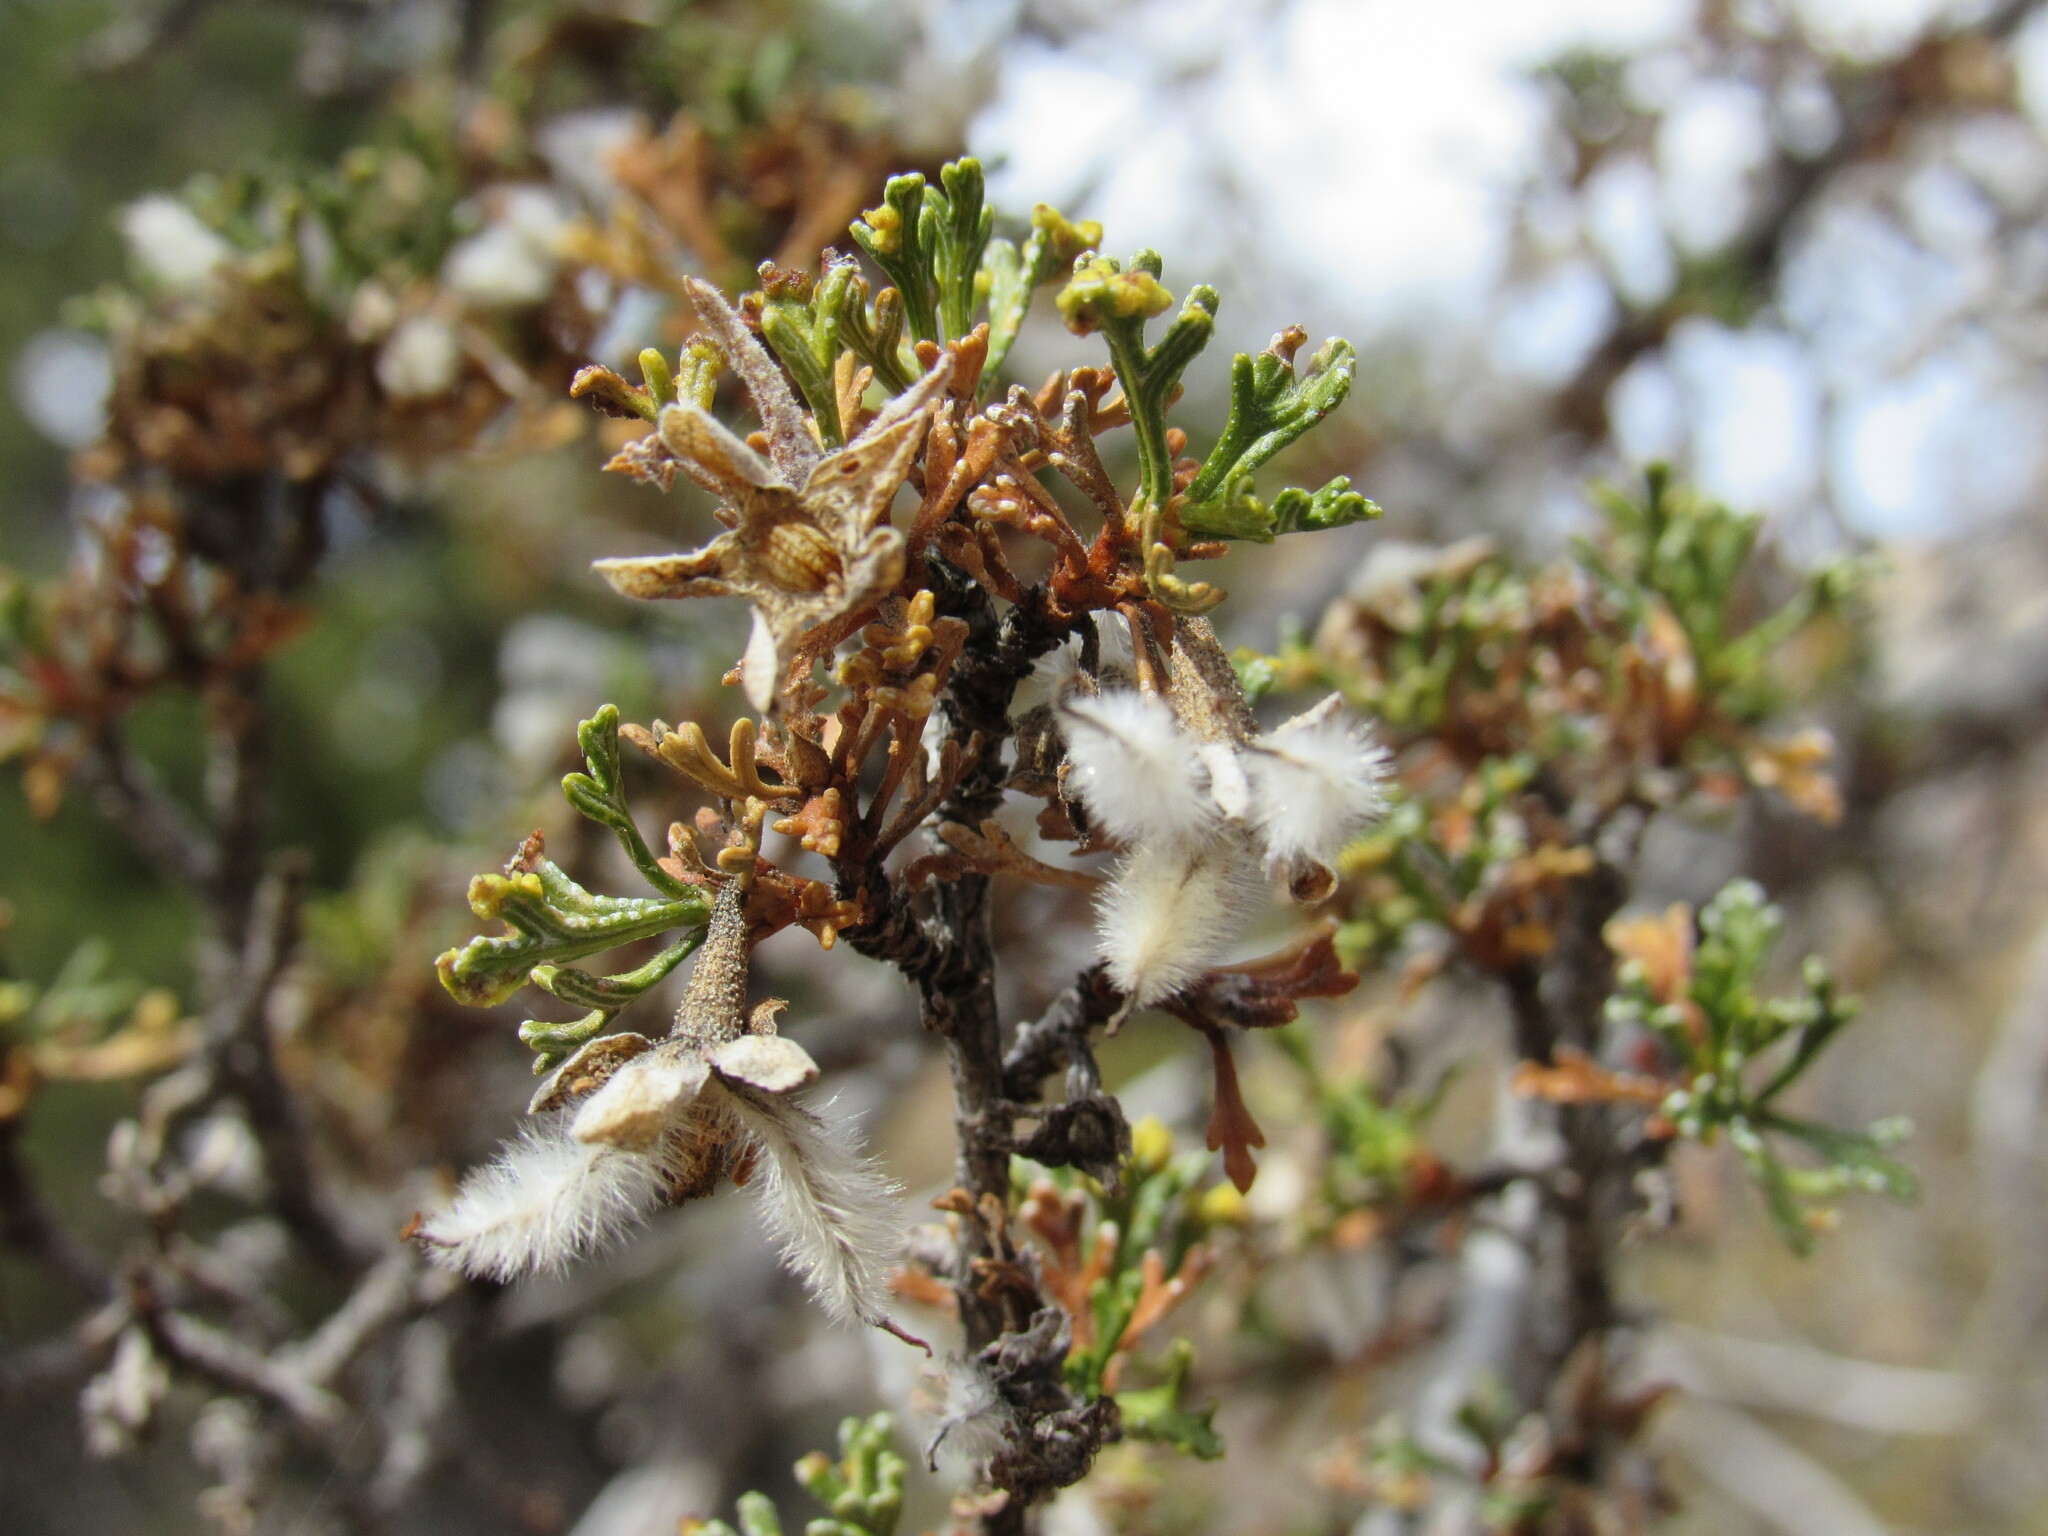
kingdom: Plantae
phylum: Tracheophyta
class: Magnoliopsida
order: Rosales
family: Rosaceae
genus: Purshia
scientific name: Purshia stansburiana
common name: Stansbury's cliffrose
